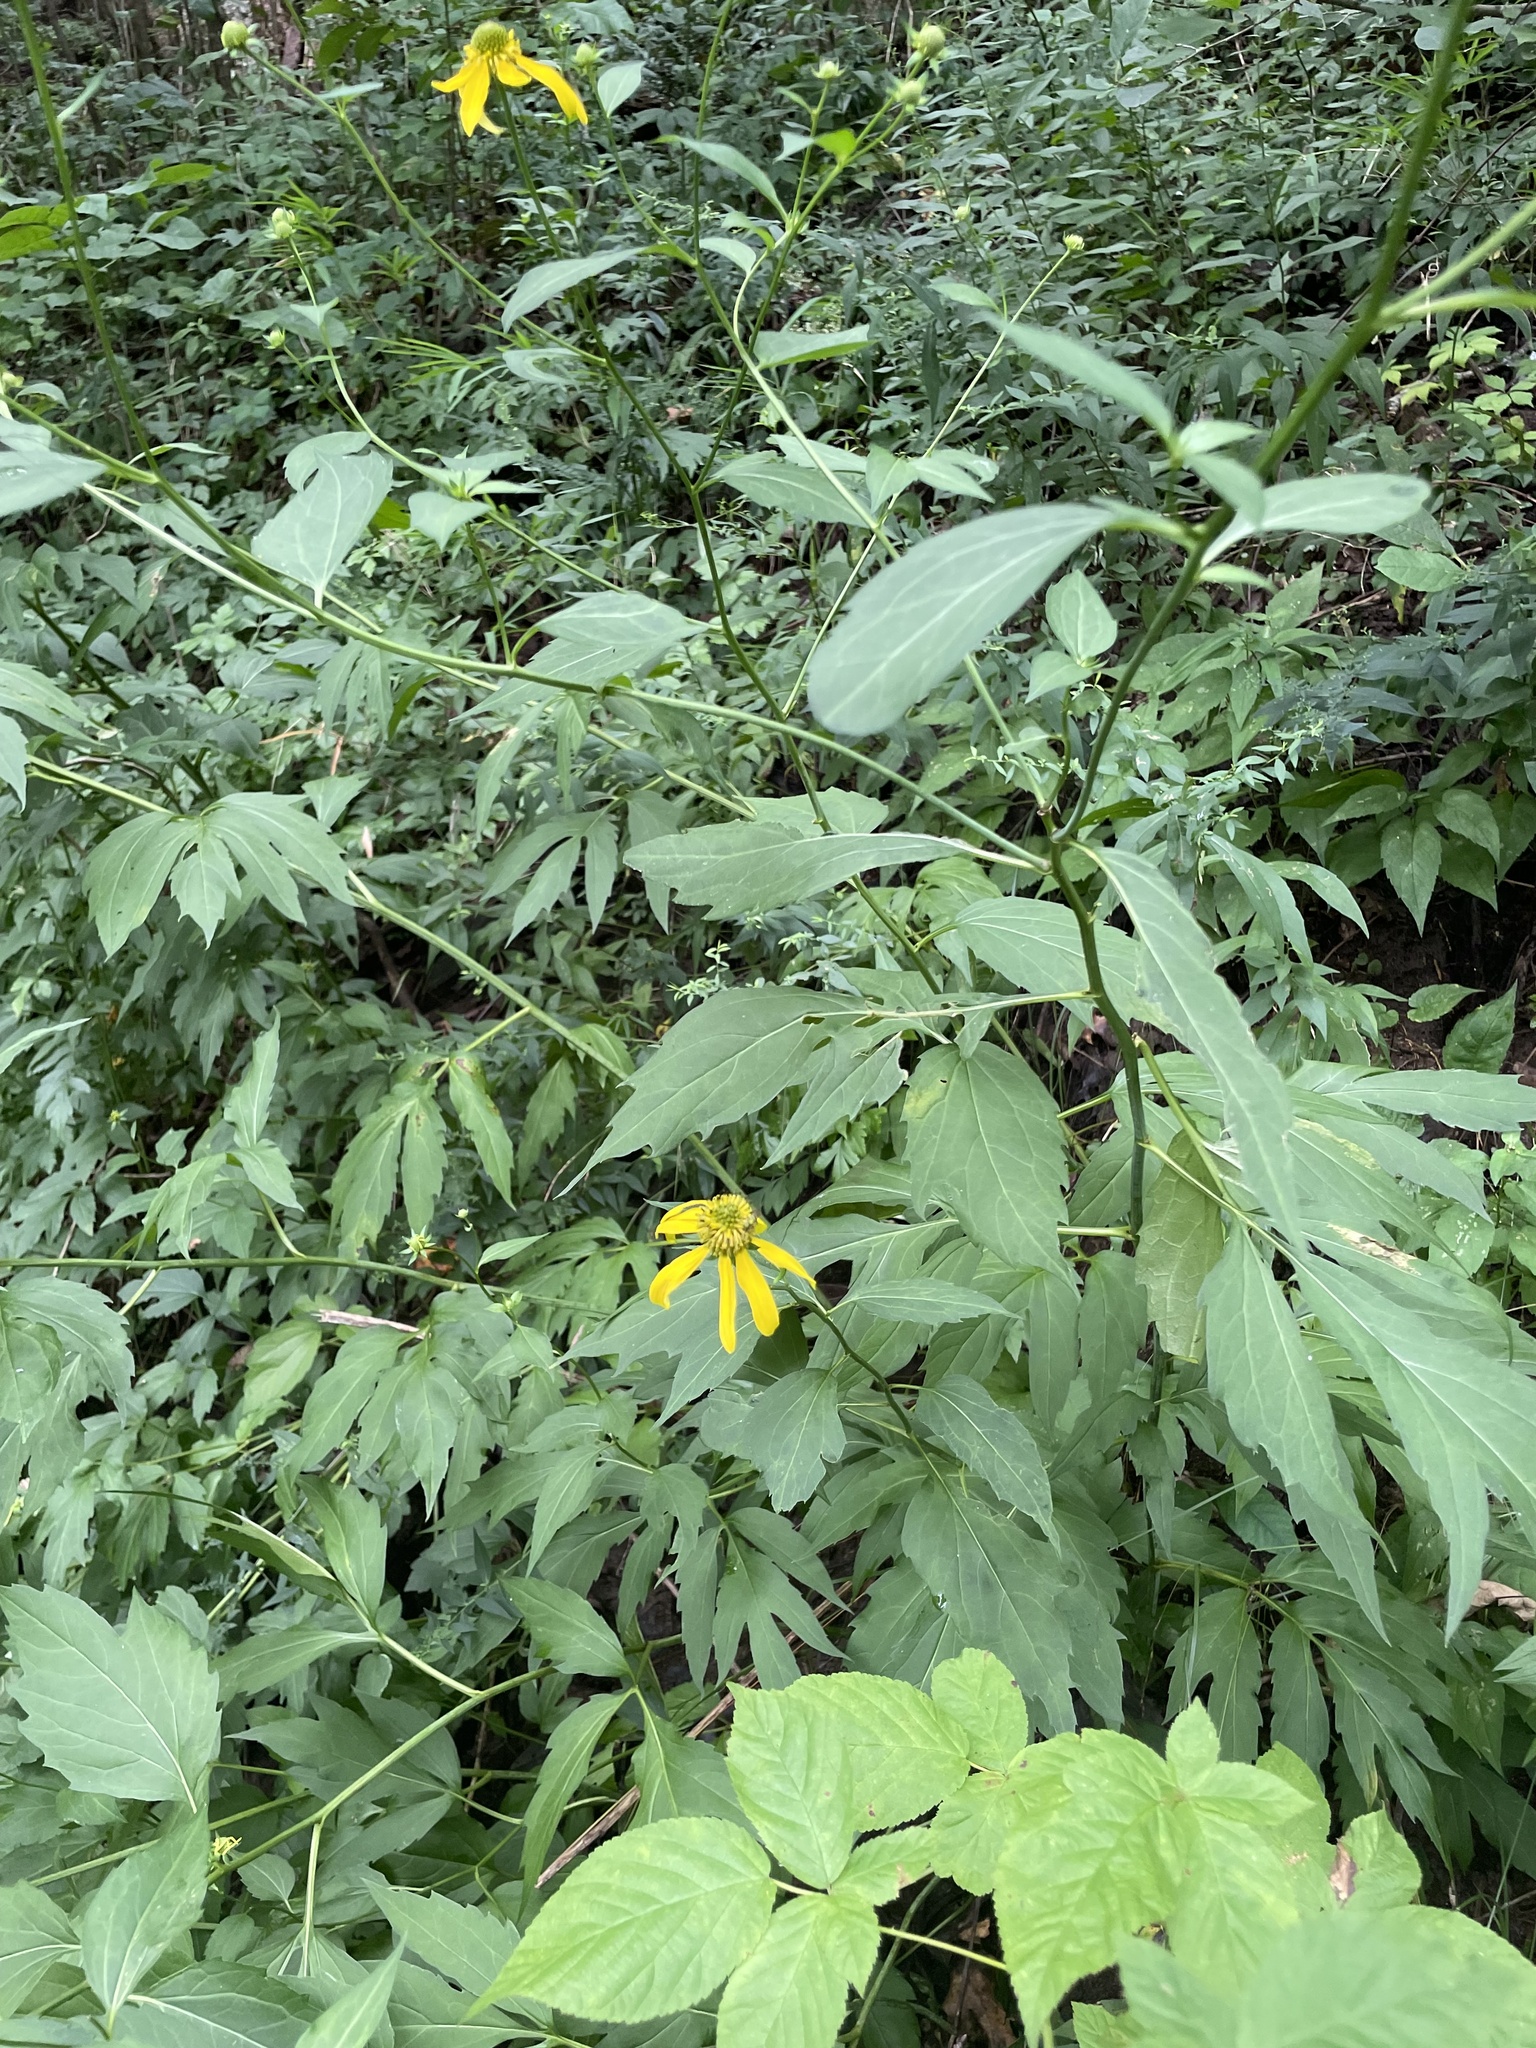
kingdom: Plantae
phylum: Tracheophyta
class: Magnoliopsida
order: Asterales
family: Asteraceae
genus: Rudbeckia
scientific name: Rudbeckia laciniata
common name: Coneflower
